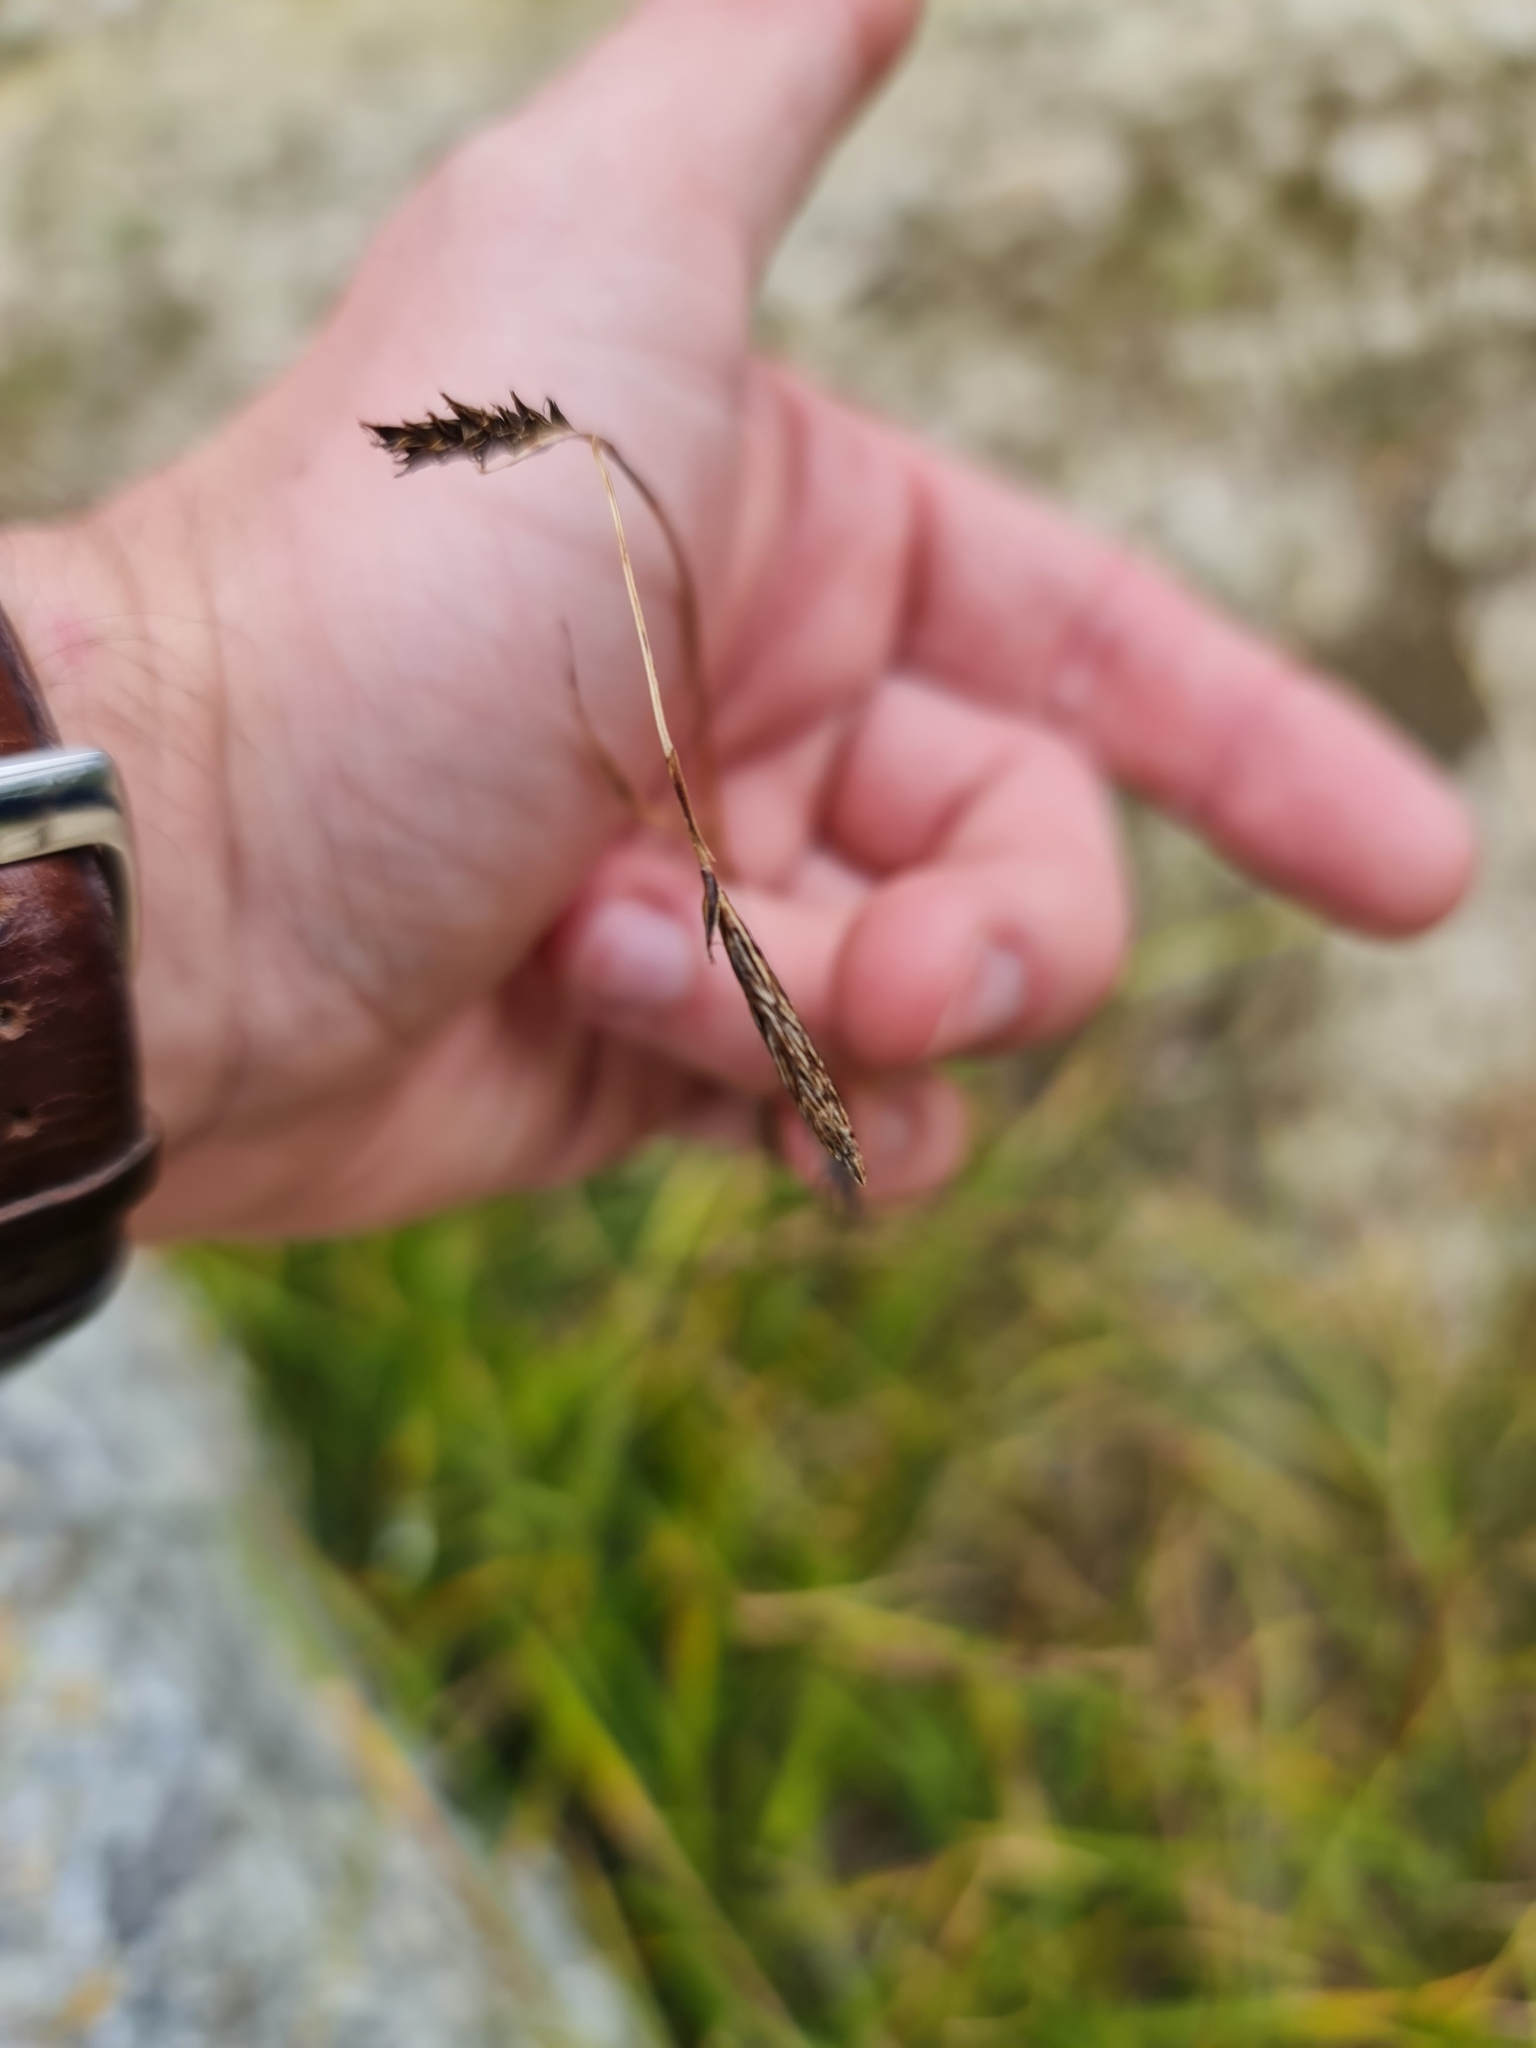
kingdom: Plantae
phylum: Tracheophyta
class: Liliopsida
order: Poales
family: Juncaceae
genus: Juncus
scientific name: Juncus alpinoarticulatus
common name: Alpine rush
